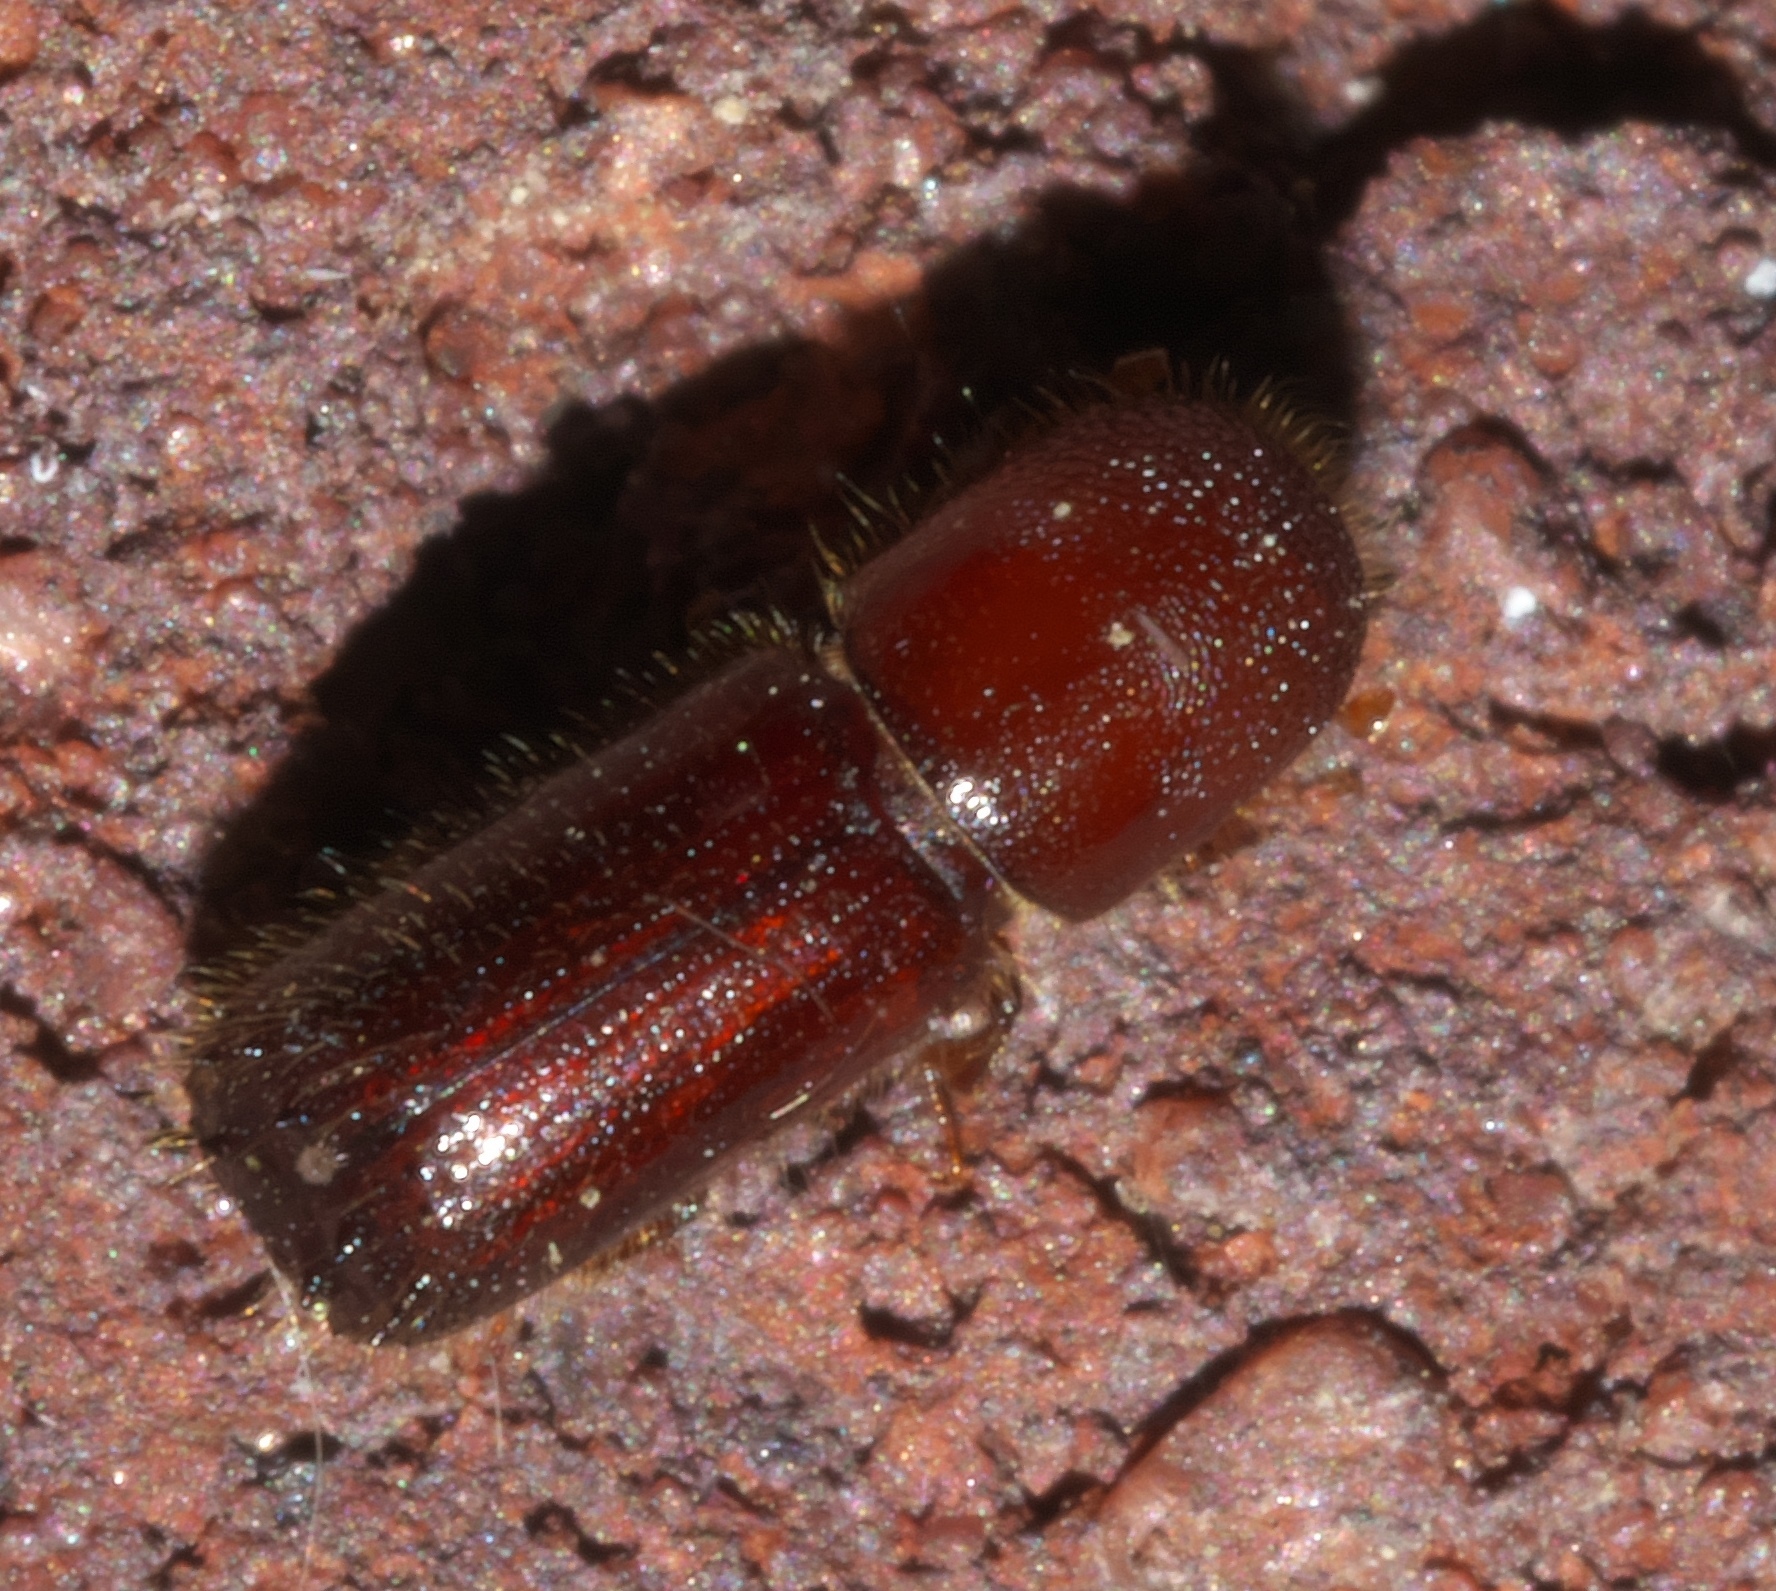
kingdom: Animalia
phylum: Arthropoda
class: Insecta
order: Coleoptera
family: Curculionidae
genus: Xyleborus
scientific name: Xyleborus celsus
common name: Weevil
